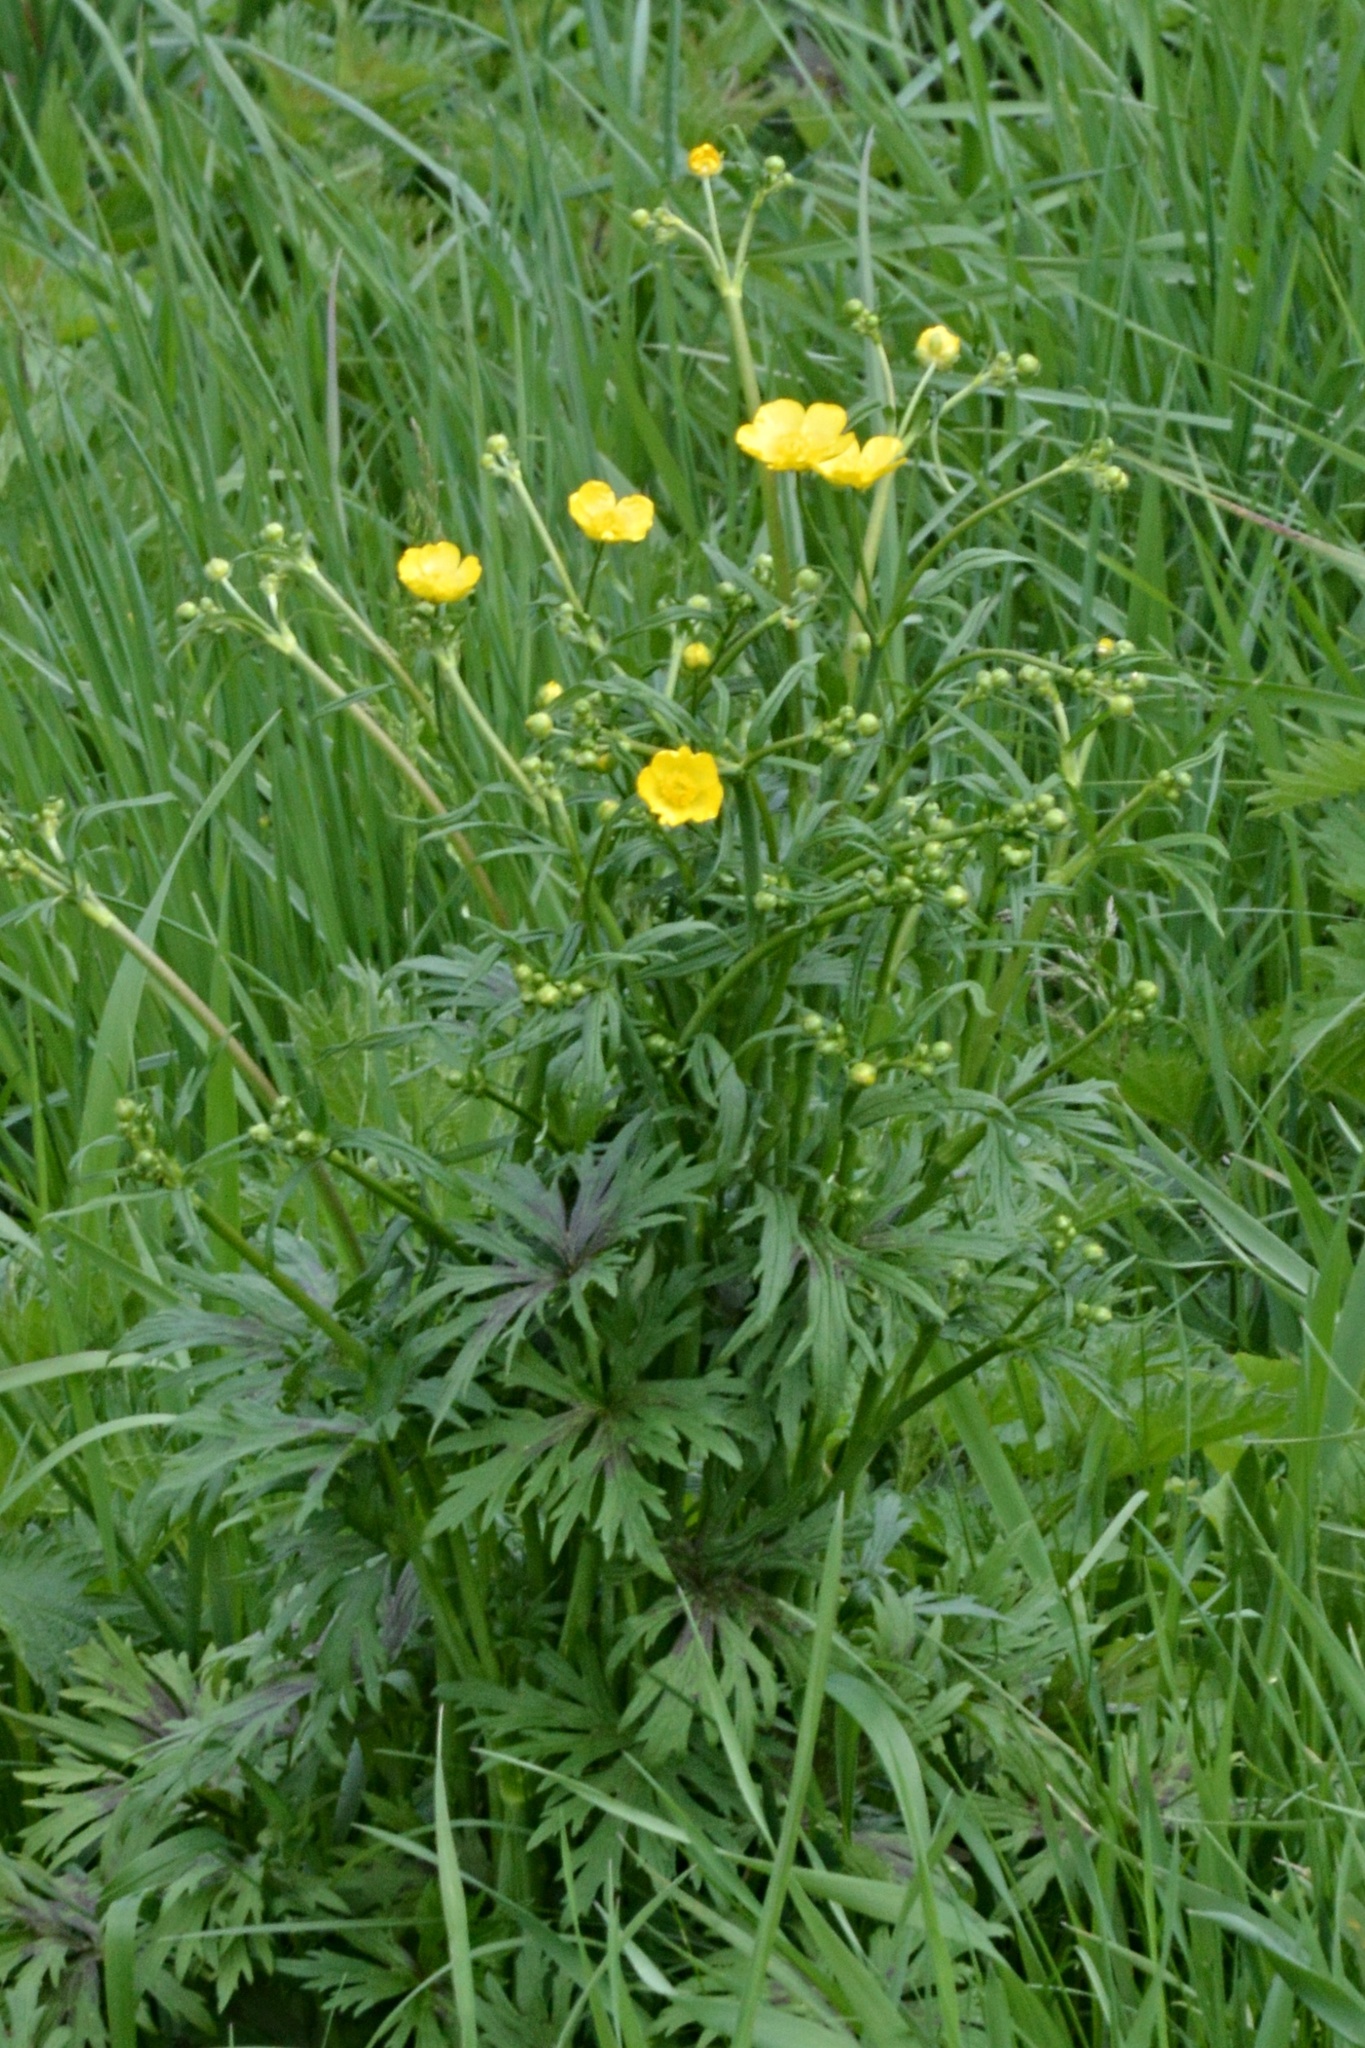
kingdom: Plantae
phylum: Tracheophyta
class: Magnoliopsida
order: Ranunculales
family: Ranunculaceae
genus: Ranunculus
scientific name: Ranunculus acris
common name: Meadow buttercup
